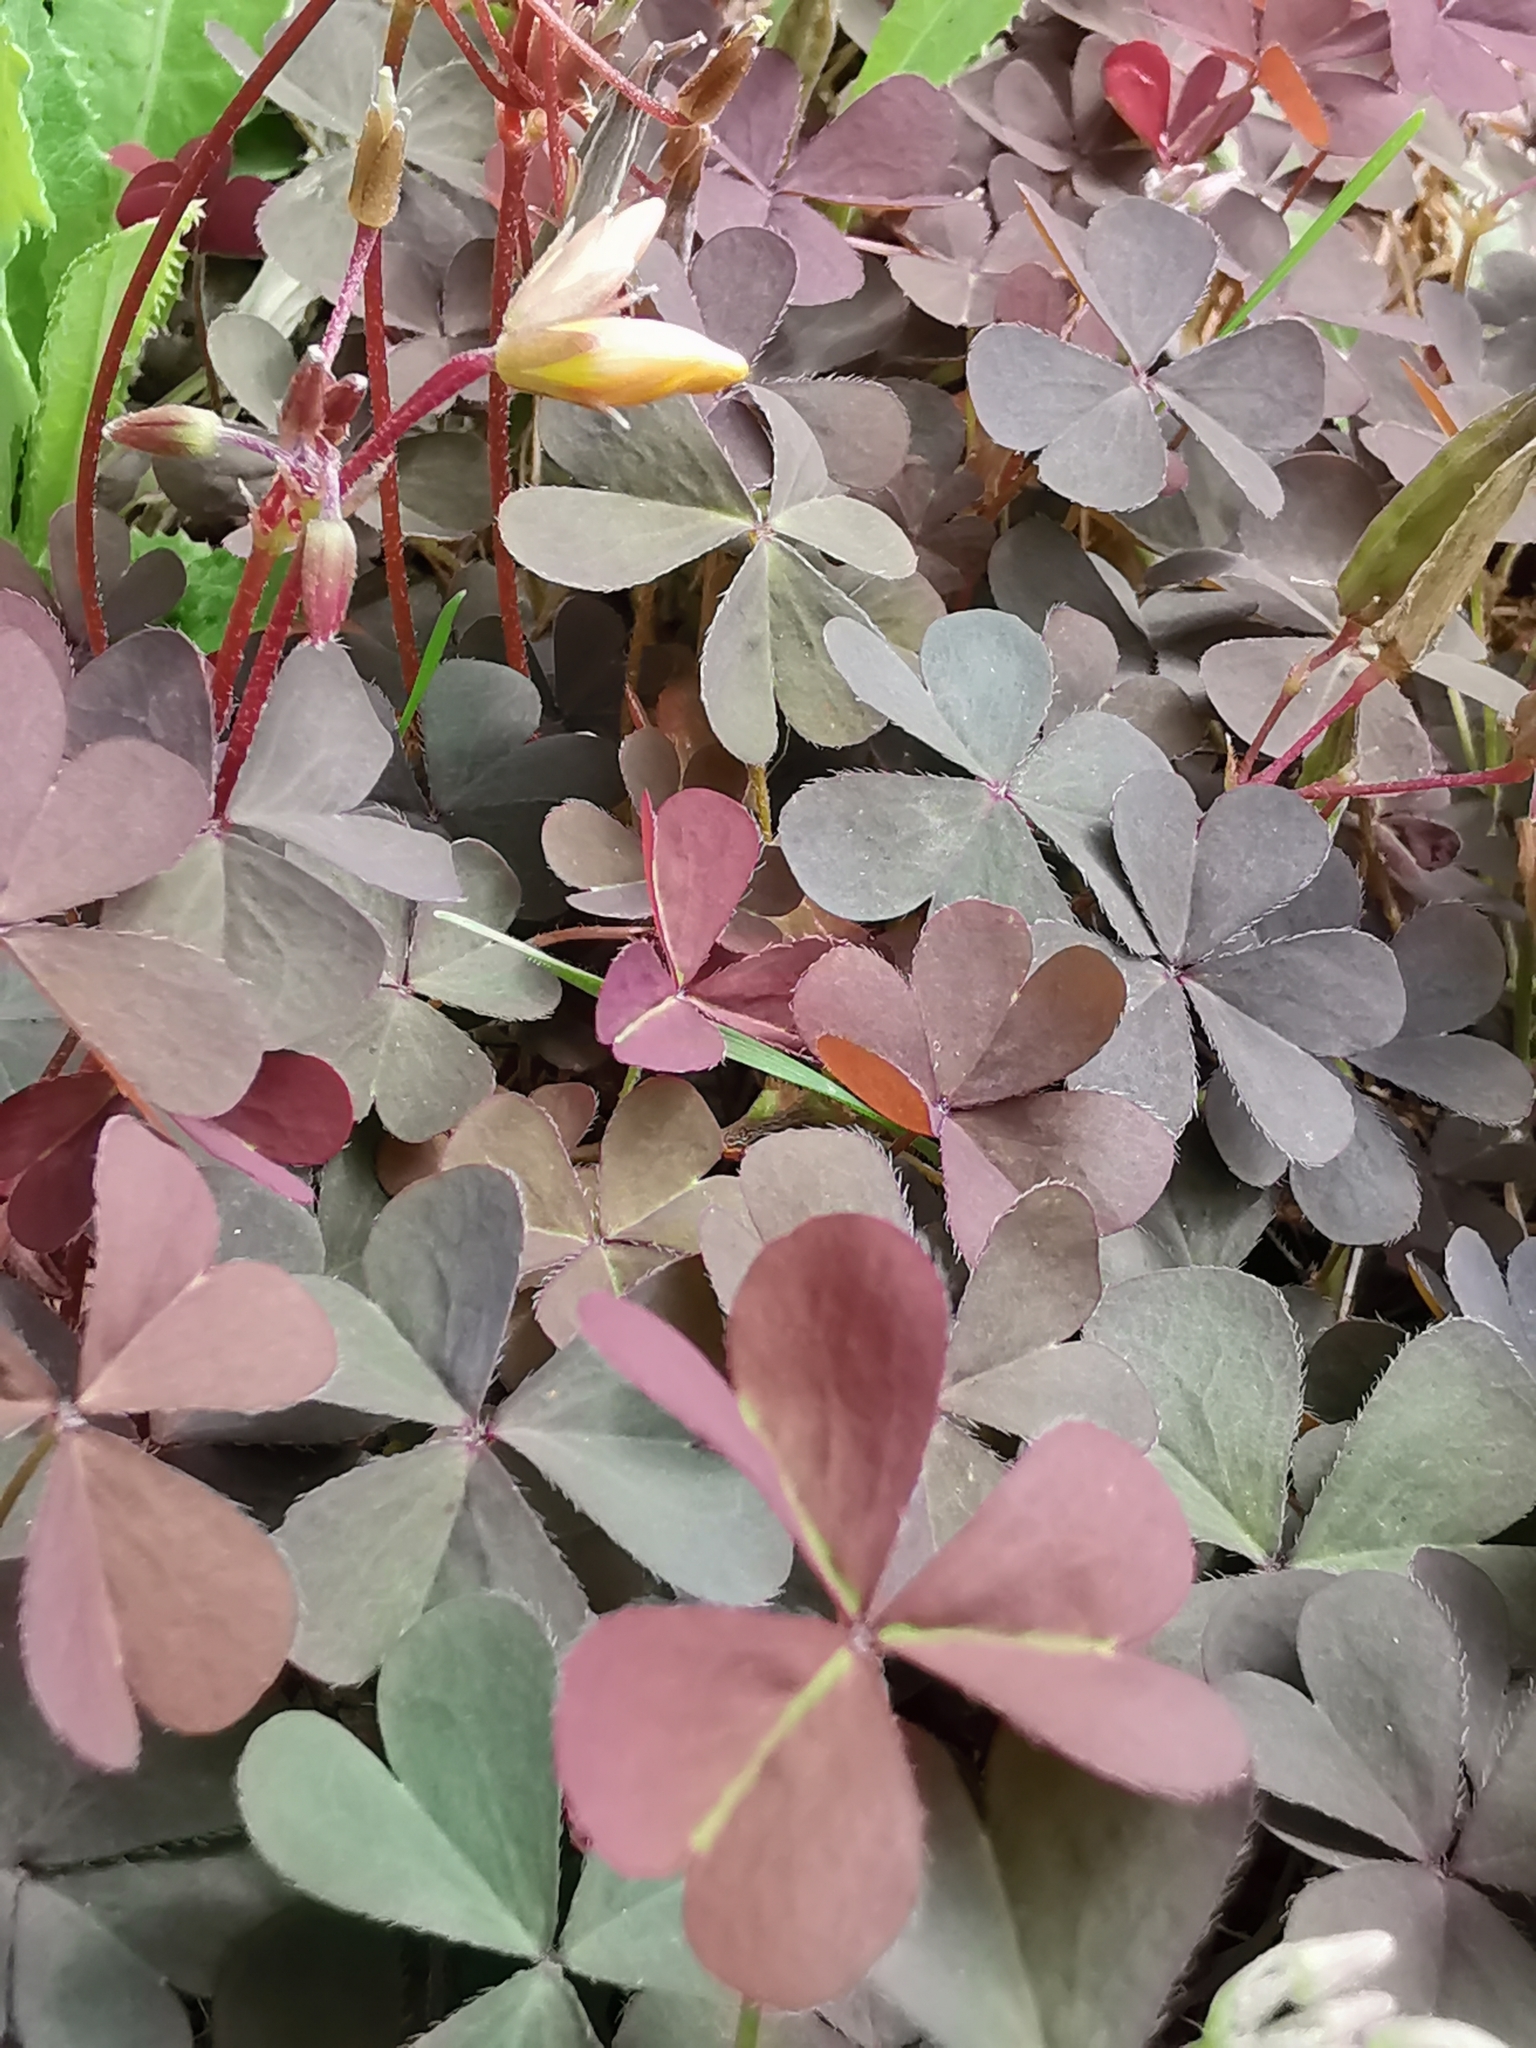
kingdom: Plantae
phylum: Tracheophyta
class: Magnoliopsida
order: Oxalidales
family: Oxalidaceae
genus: Oxalis
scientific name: Oxalis corniculata
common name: Procumbent yellow-sorrel
